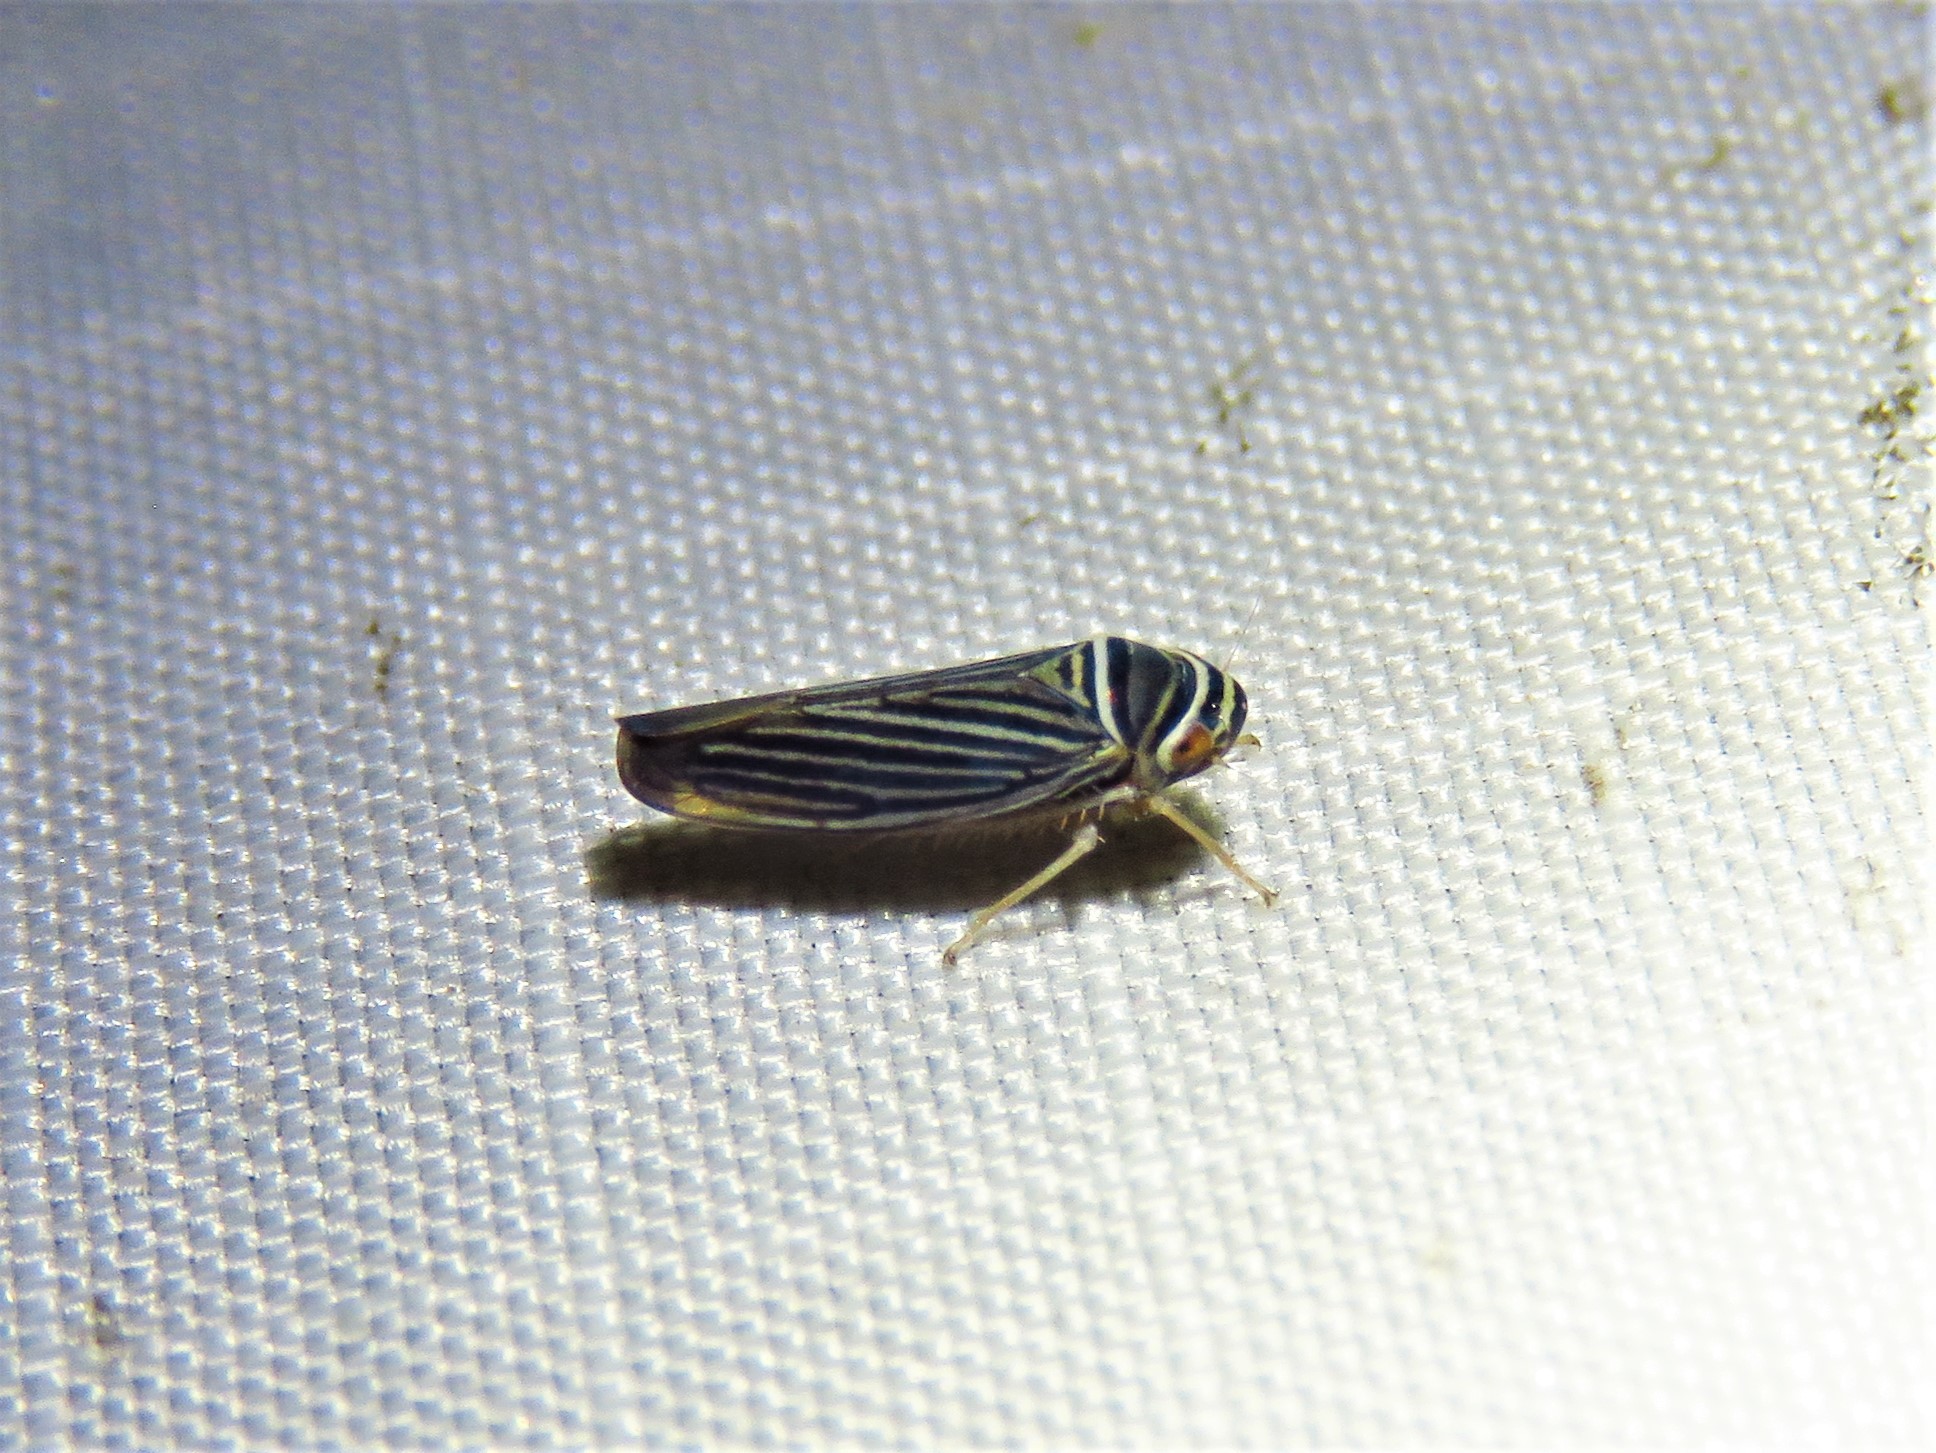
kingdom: Animalia
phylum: Arthropoda
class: Insecta
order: Hemiptera
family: Cicadellidae
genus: Tylozygus
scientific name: Tylozygus bifidus
